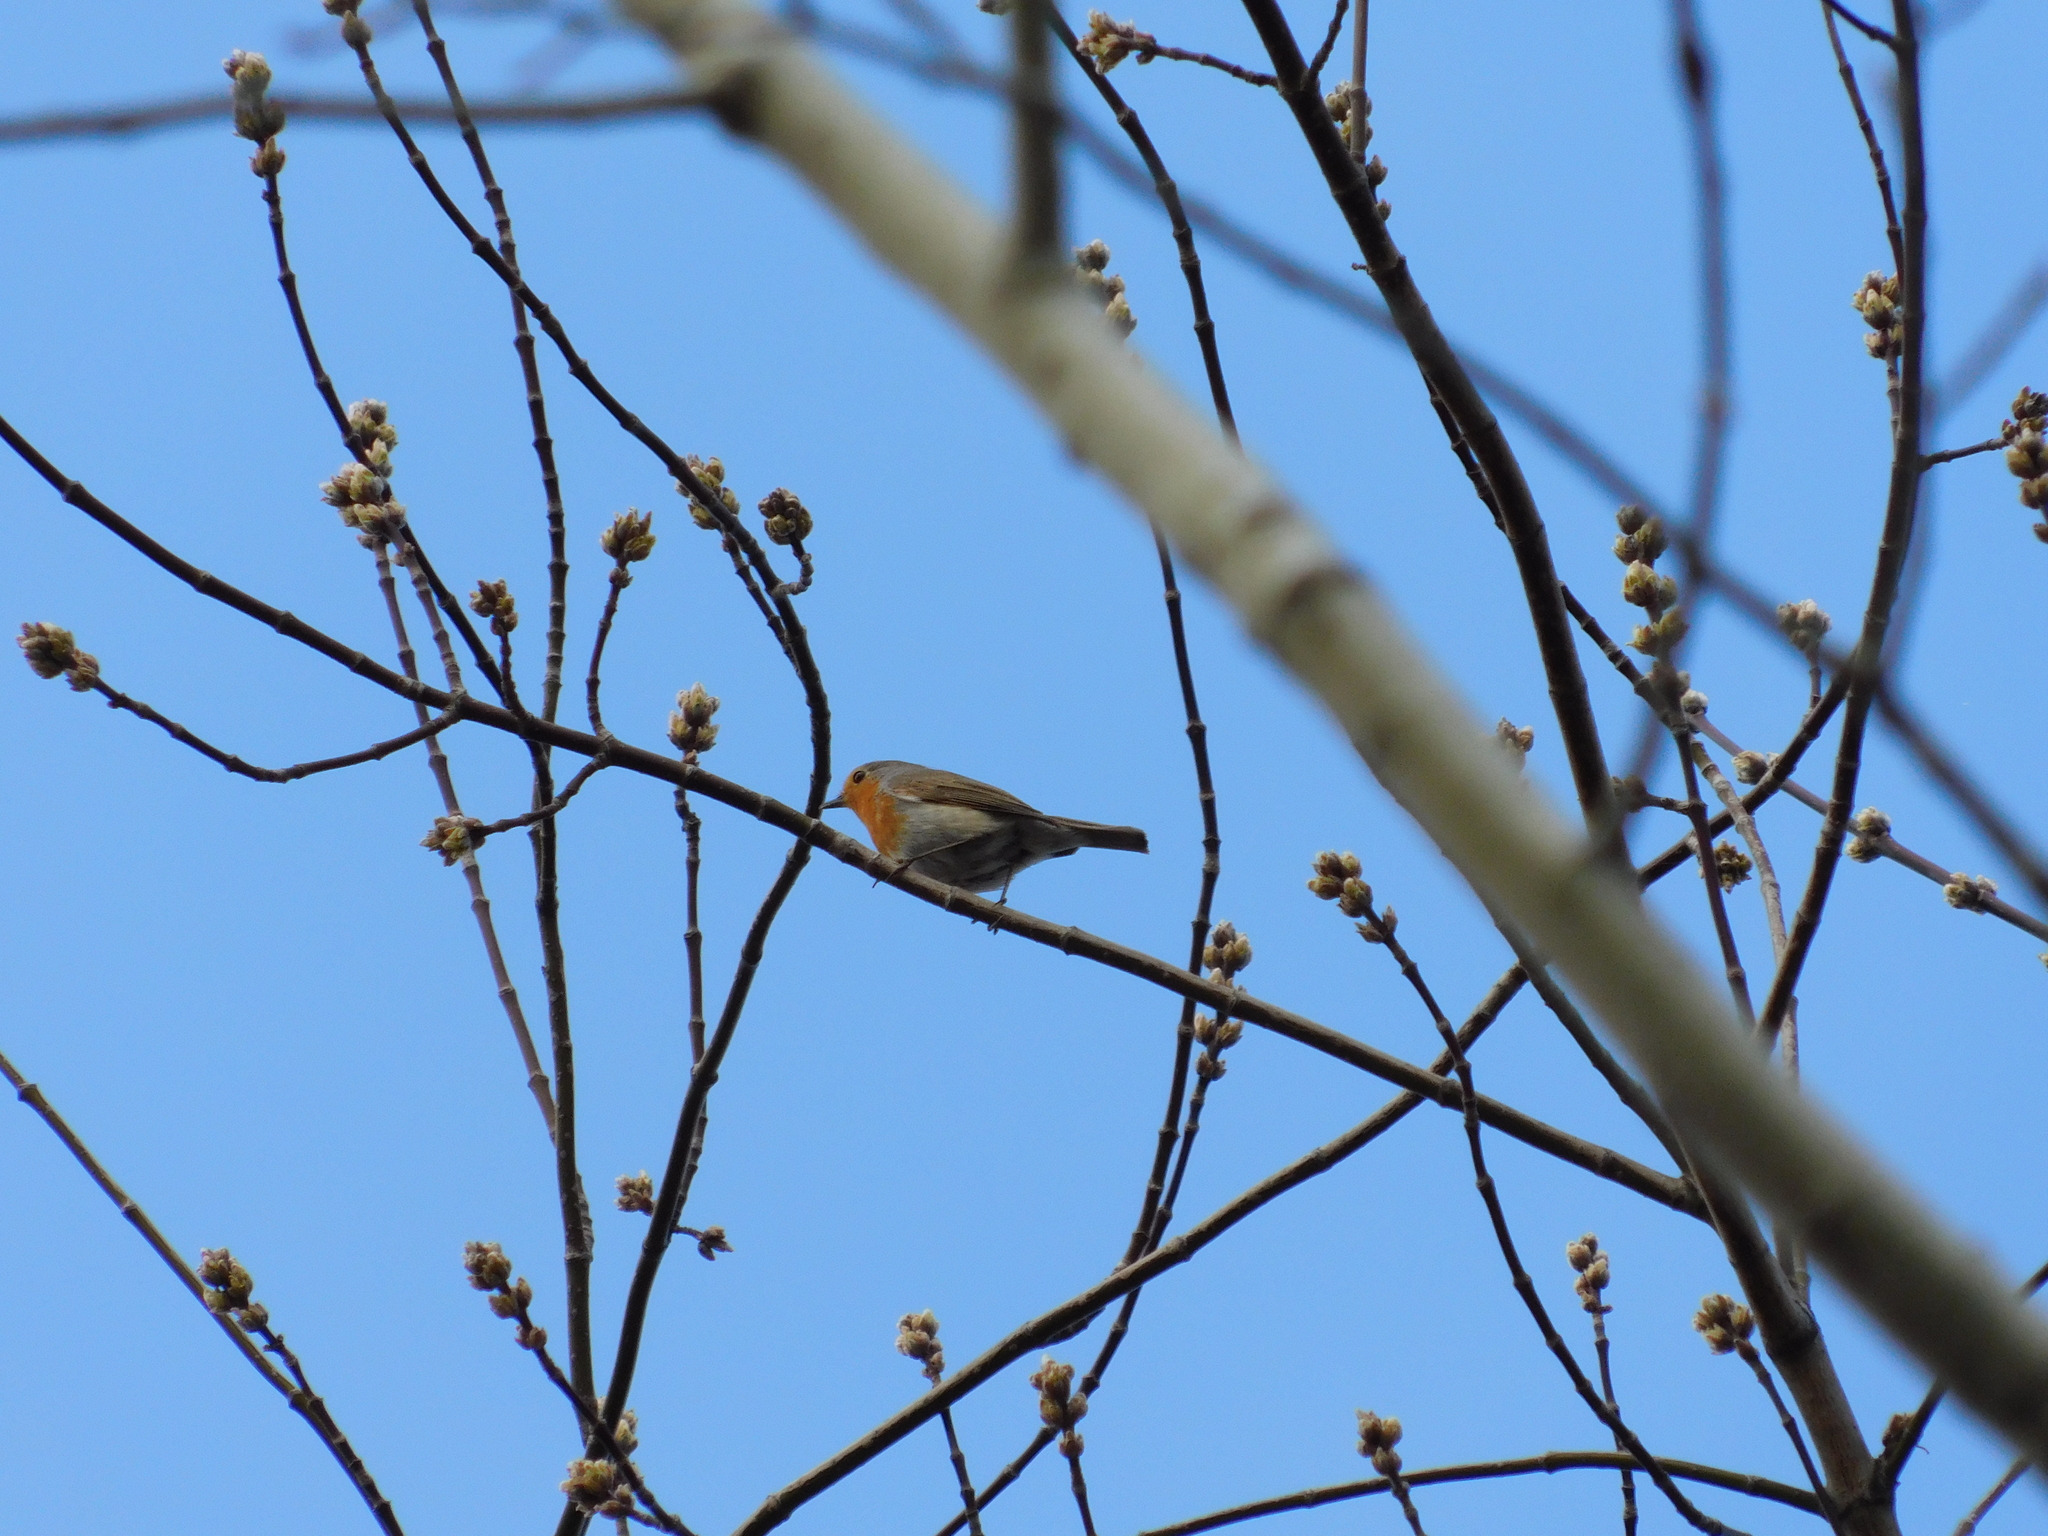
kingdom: Animalia
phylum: Chordata
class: Aves
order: Passeriformes
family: Muscicapidae
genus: Erithacus
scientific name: Erithacus rubecula
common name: European robin
